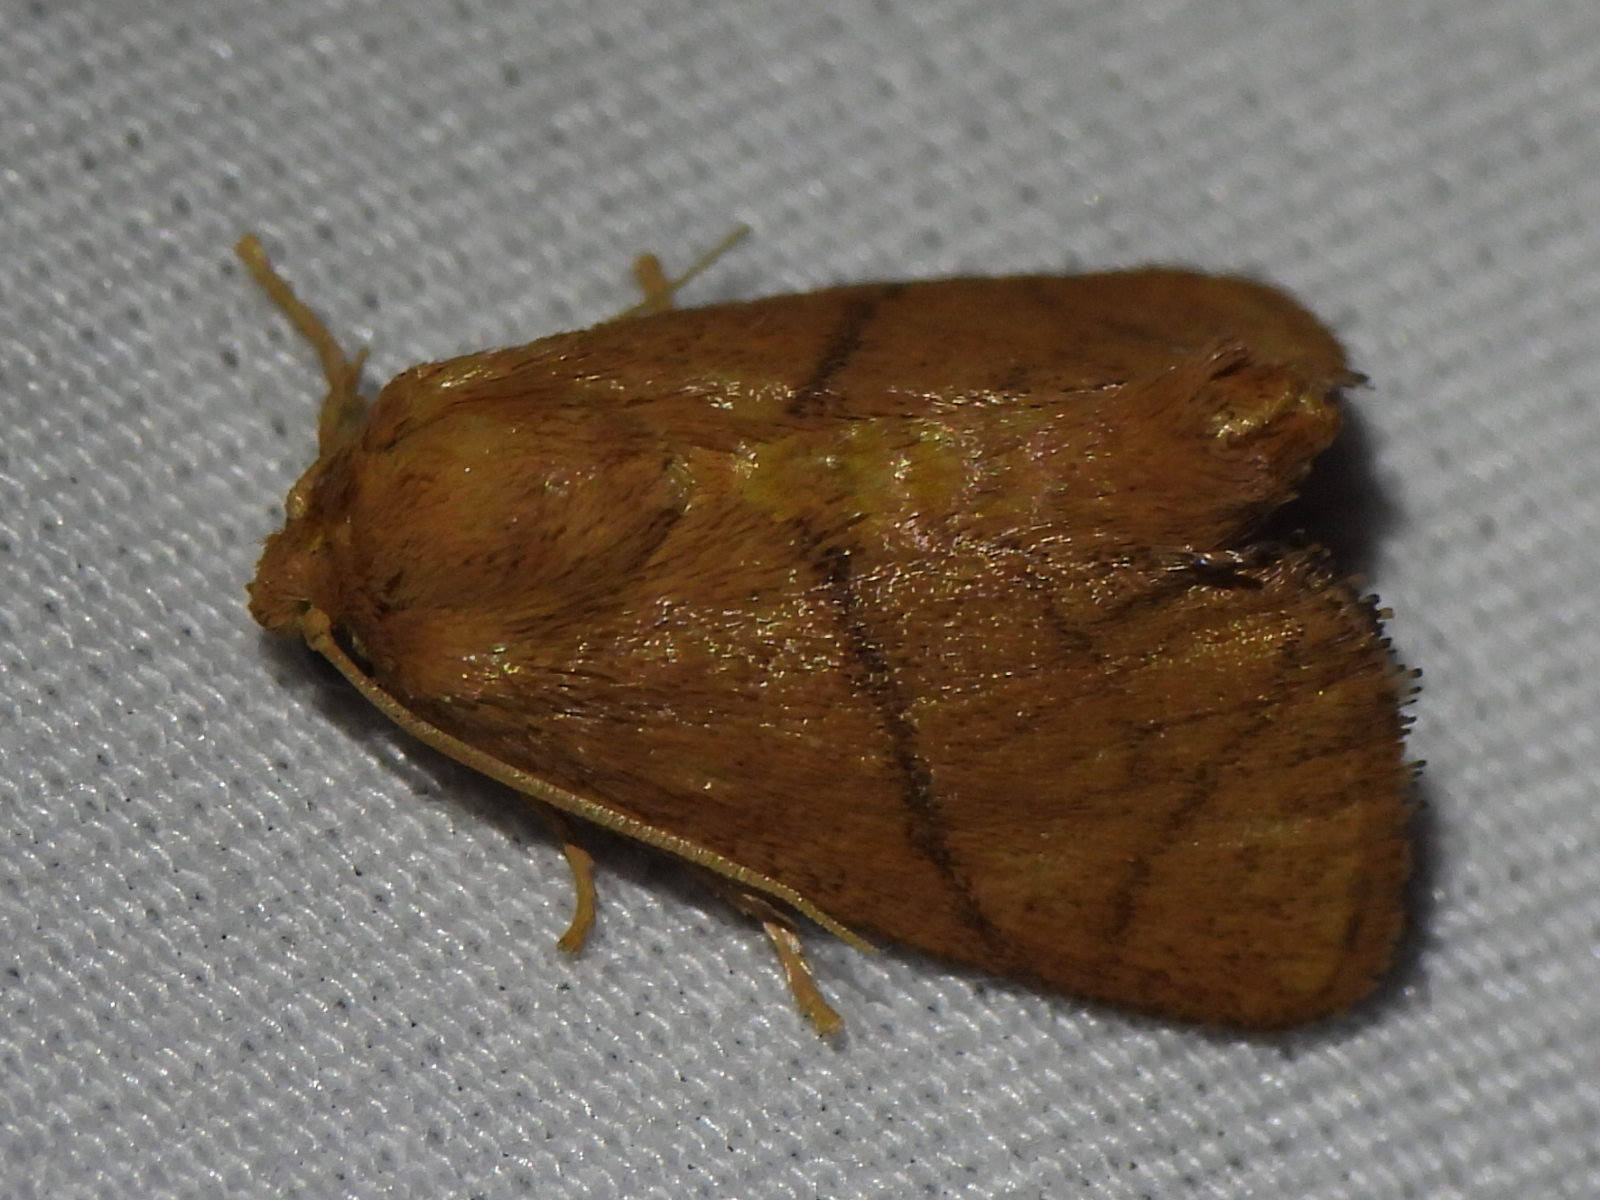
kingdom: Animalia
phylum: Arthropoda
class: Insecta
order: Lepidoptera
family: Limacodidae
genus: Apoda
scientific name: Apoda y-inversa
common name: Yellow-collared slug moth
